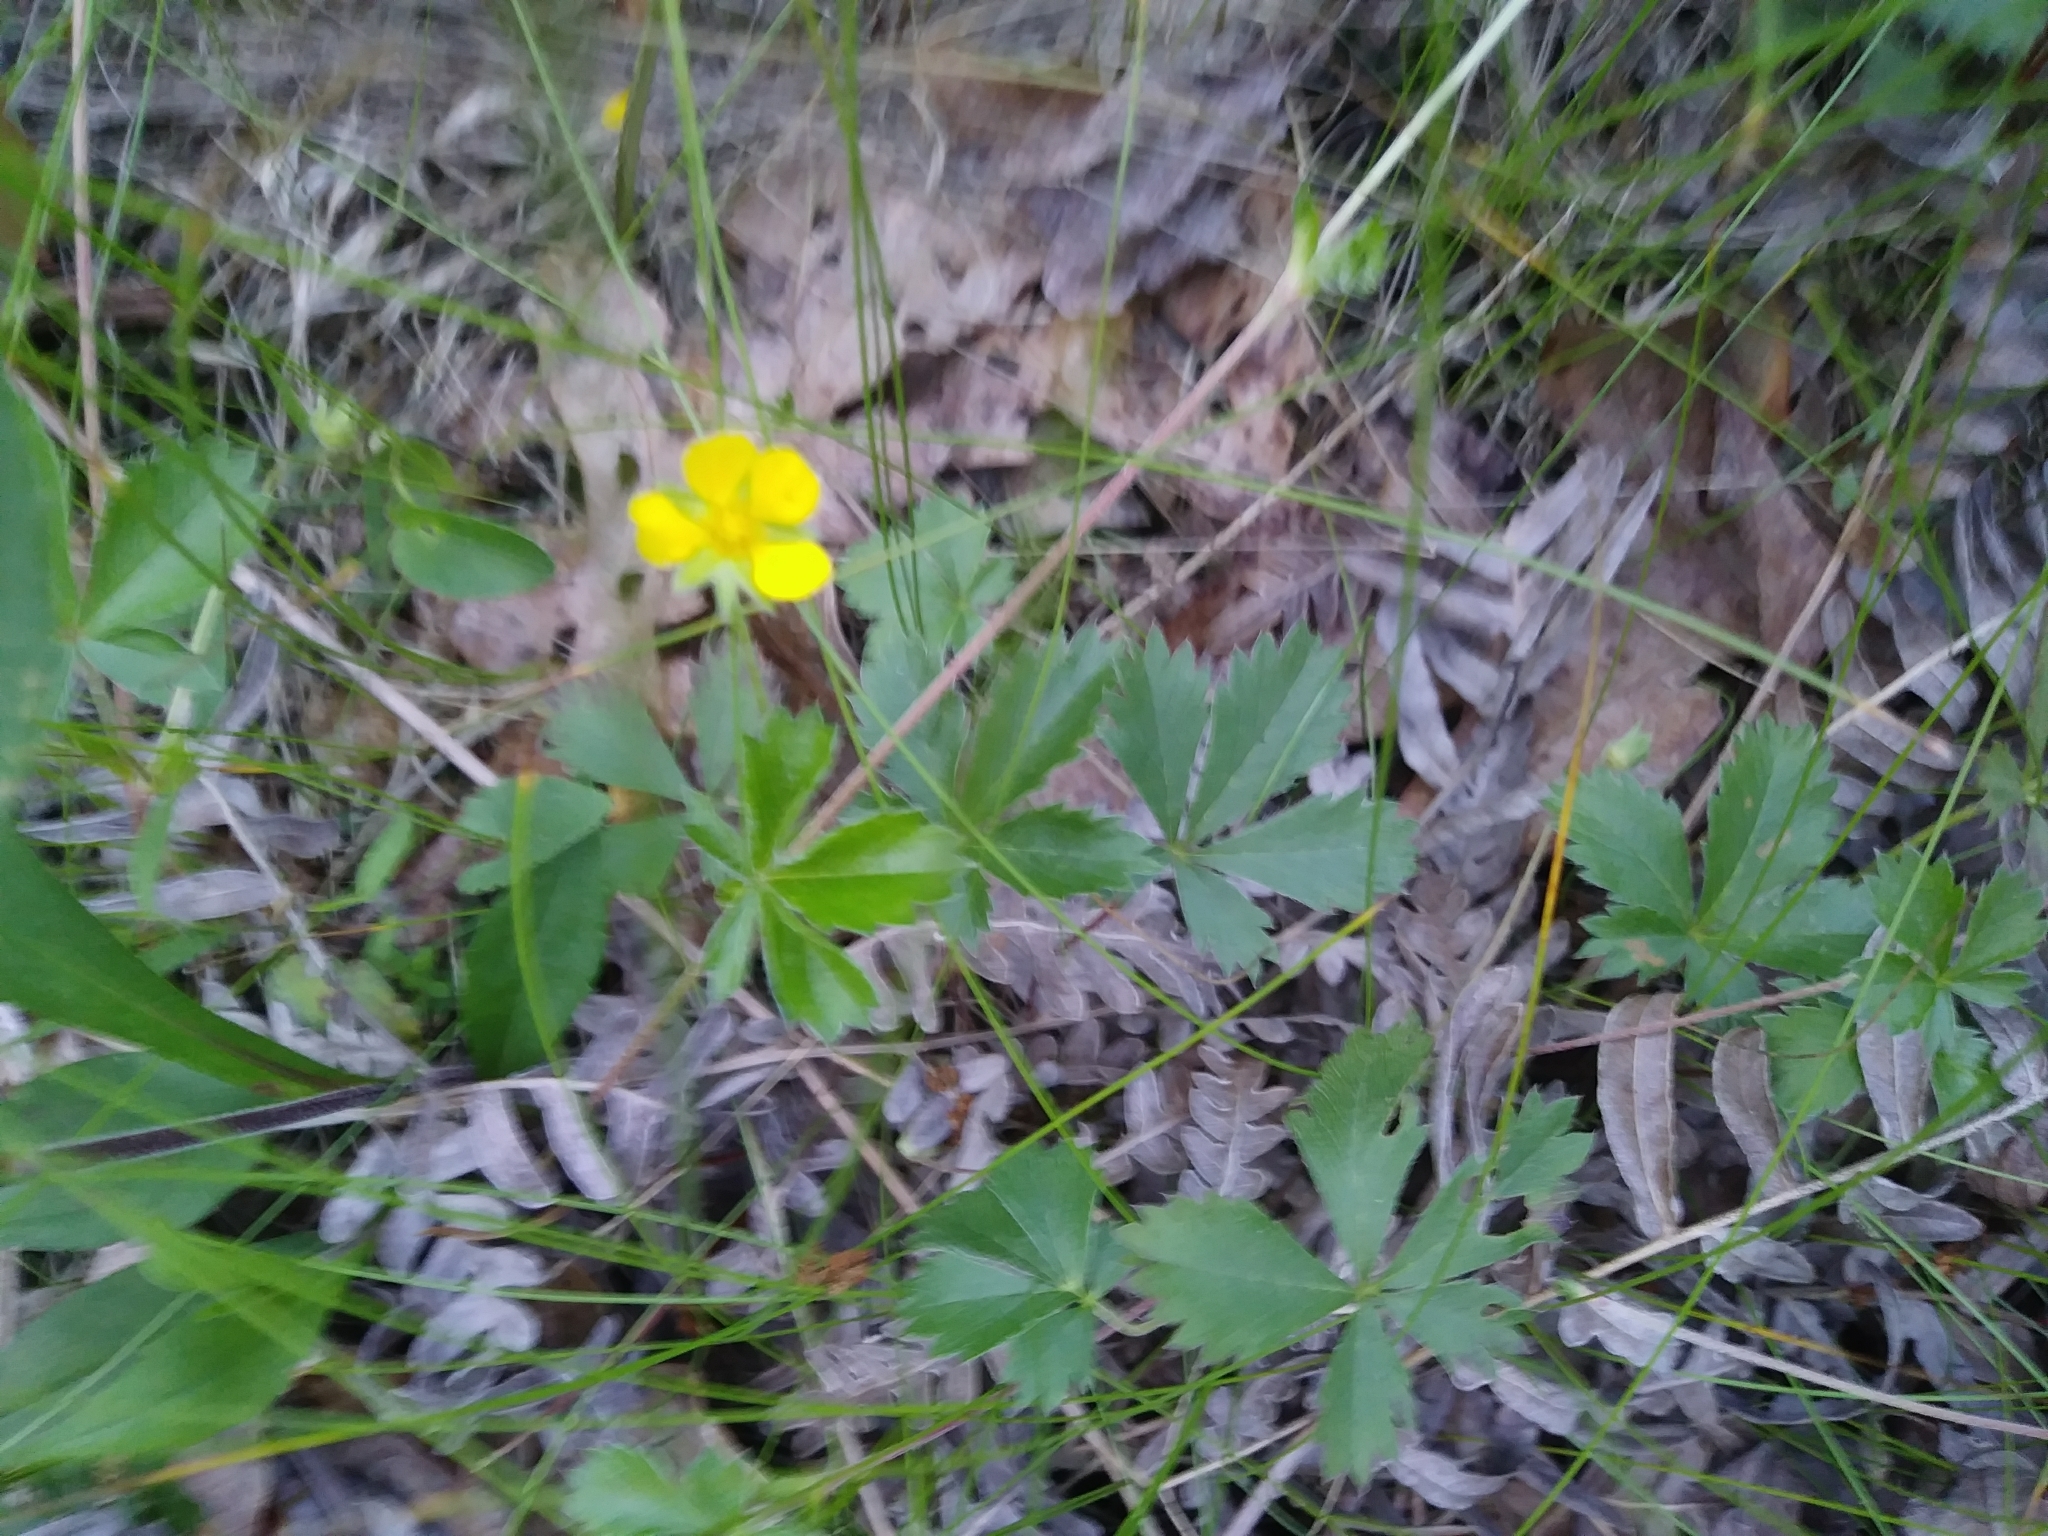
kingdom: Plantae
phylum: Tracheophyta
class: Magnoliopsida
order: Rosales
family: Rosaceae
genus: Potentilla
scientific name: Potentilla canadensis
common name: Canada cinquefoil
